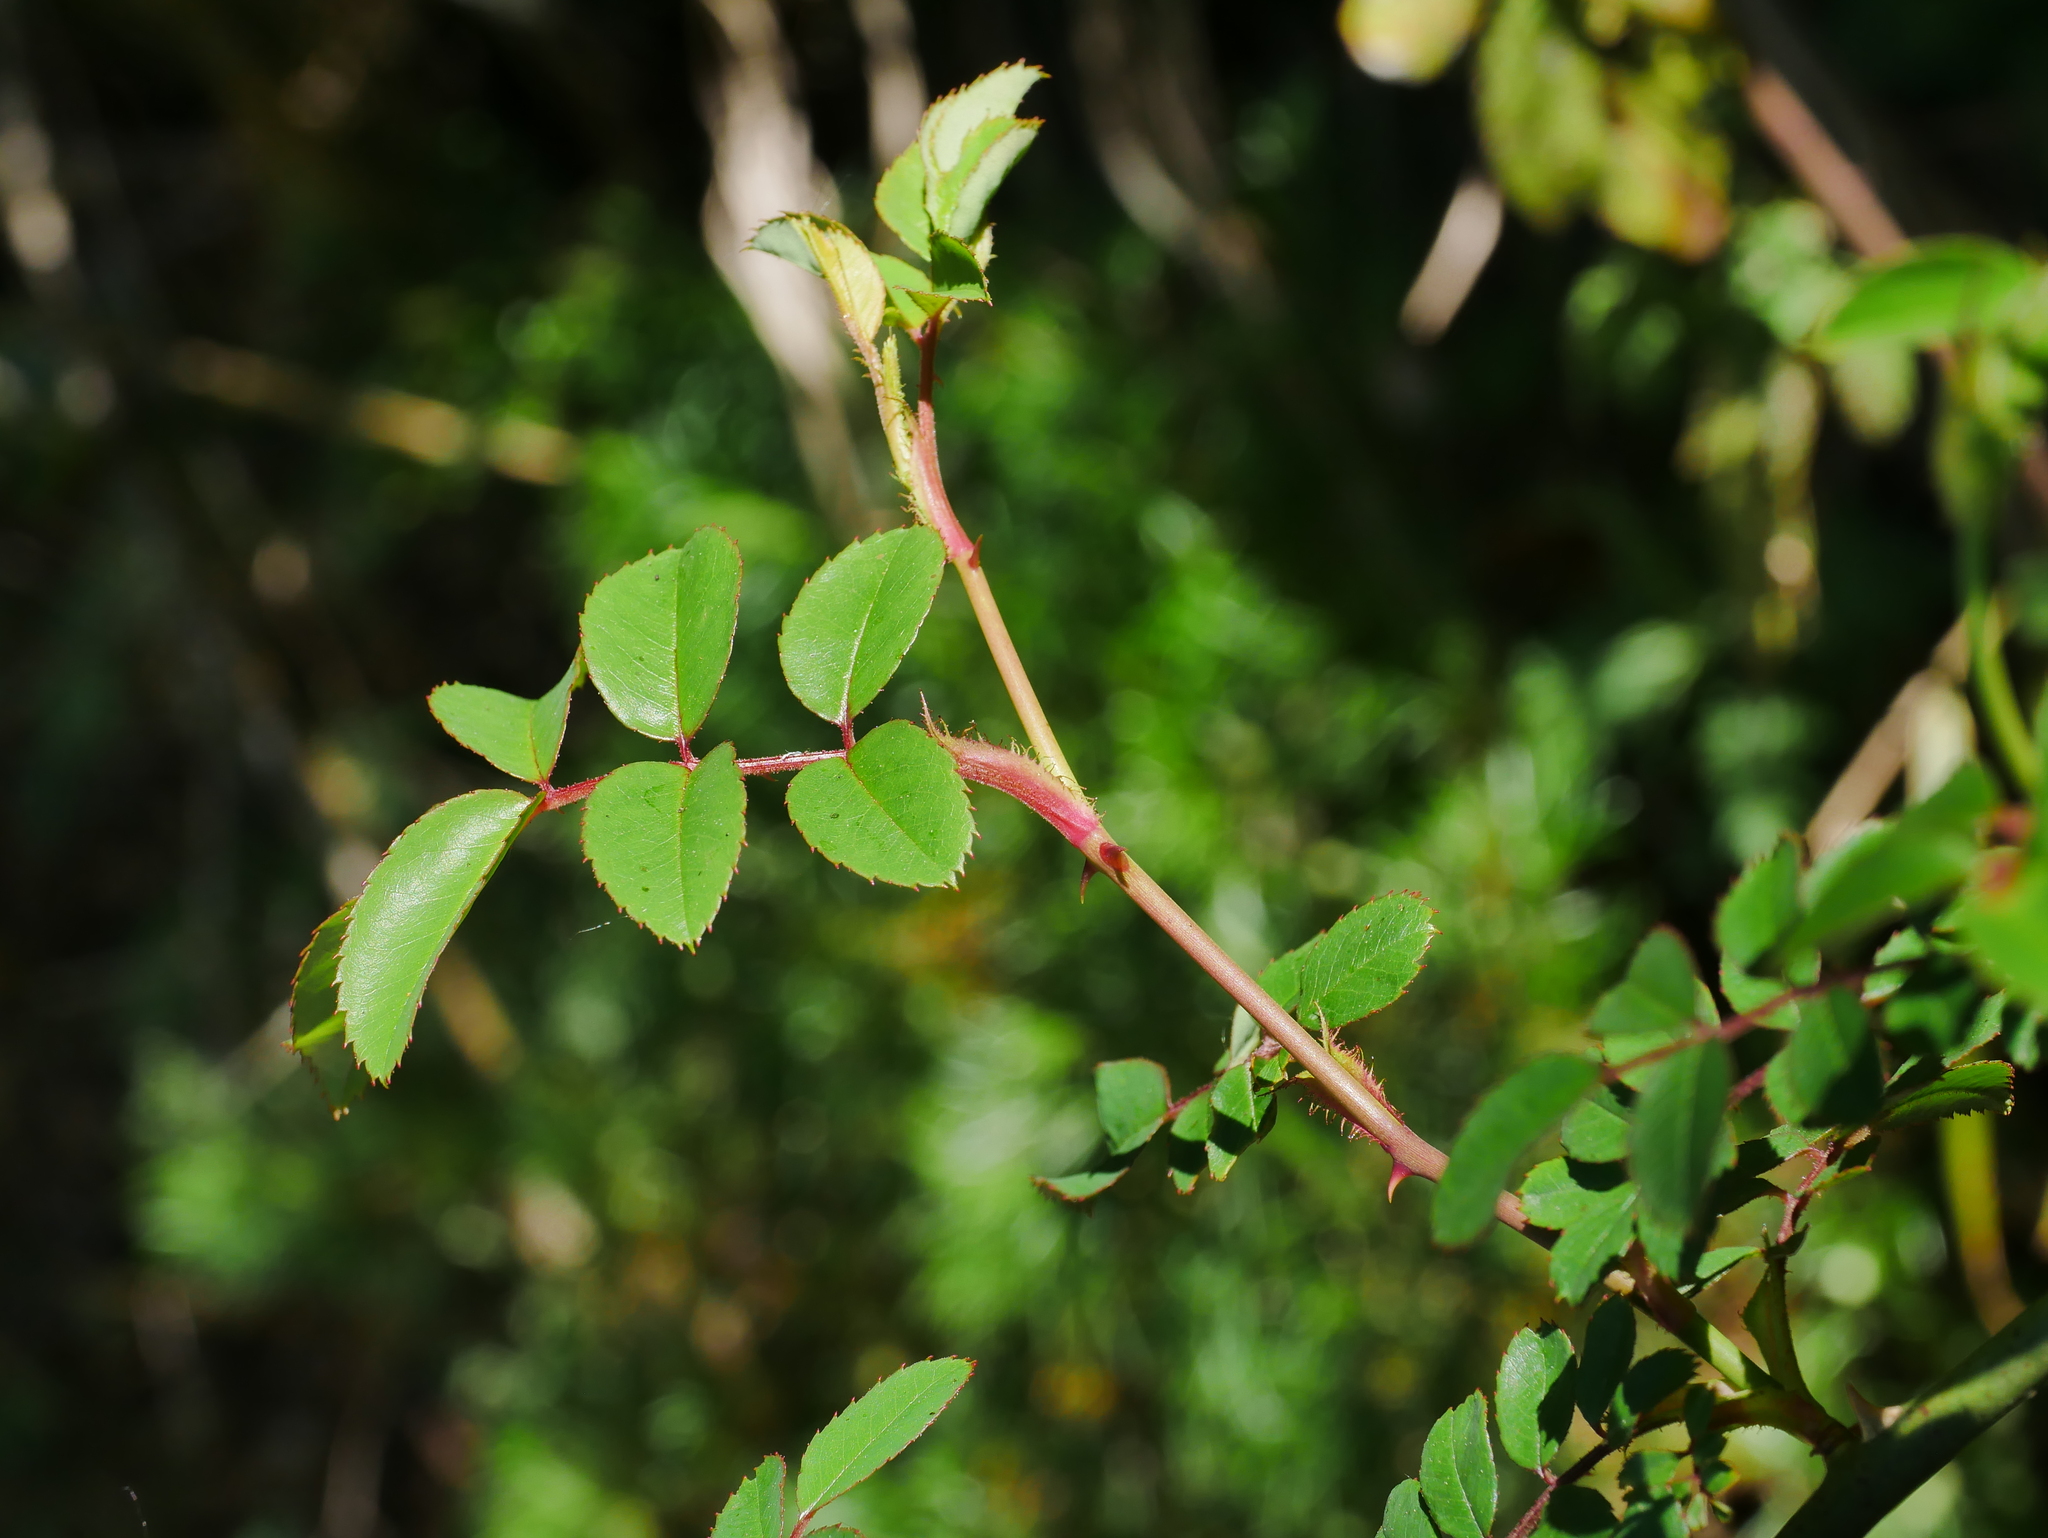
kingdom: Plantae
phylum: Tracheophyta
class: Magnoliopsida
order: Rosales
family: Rosaceae
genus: Rosa
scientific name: Rosa transmorrisonensis
